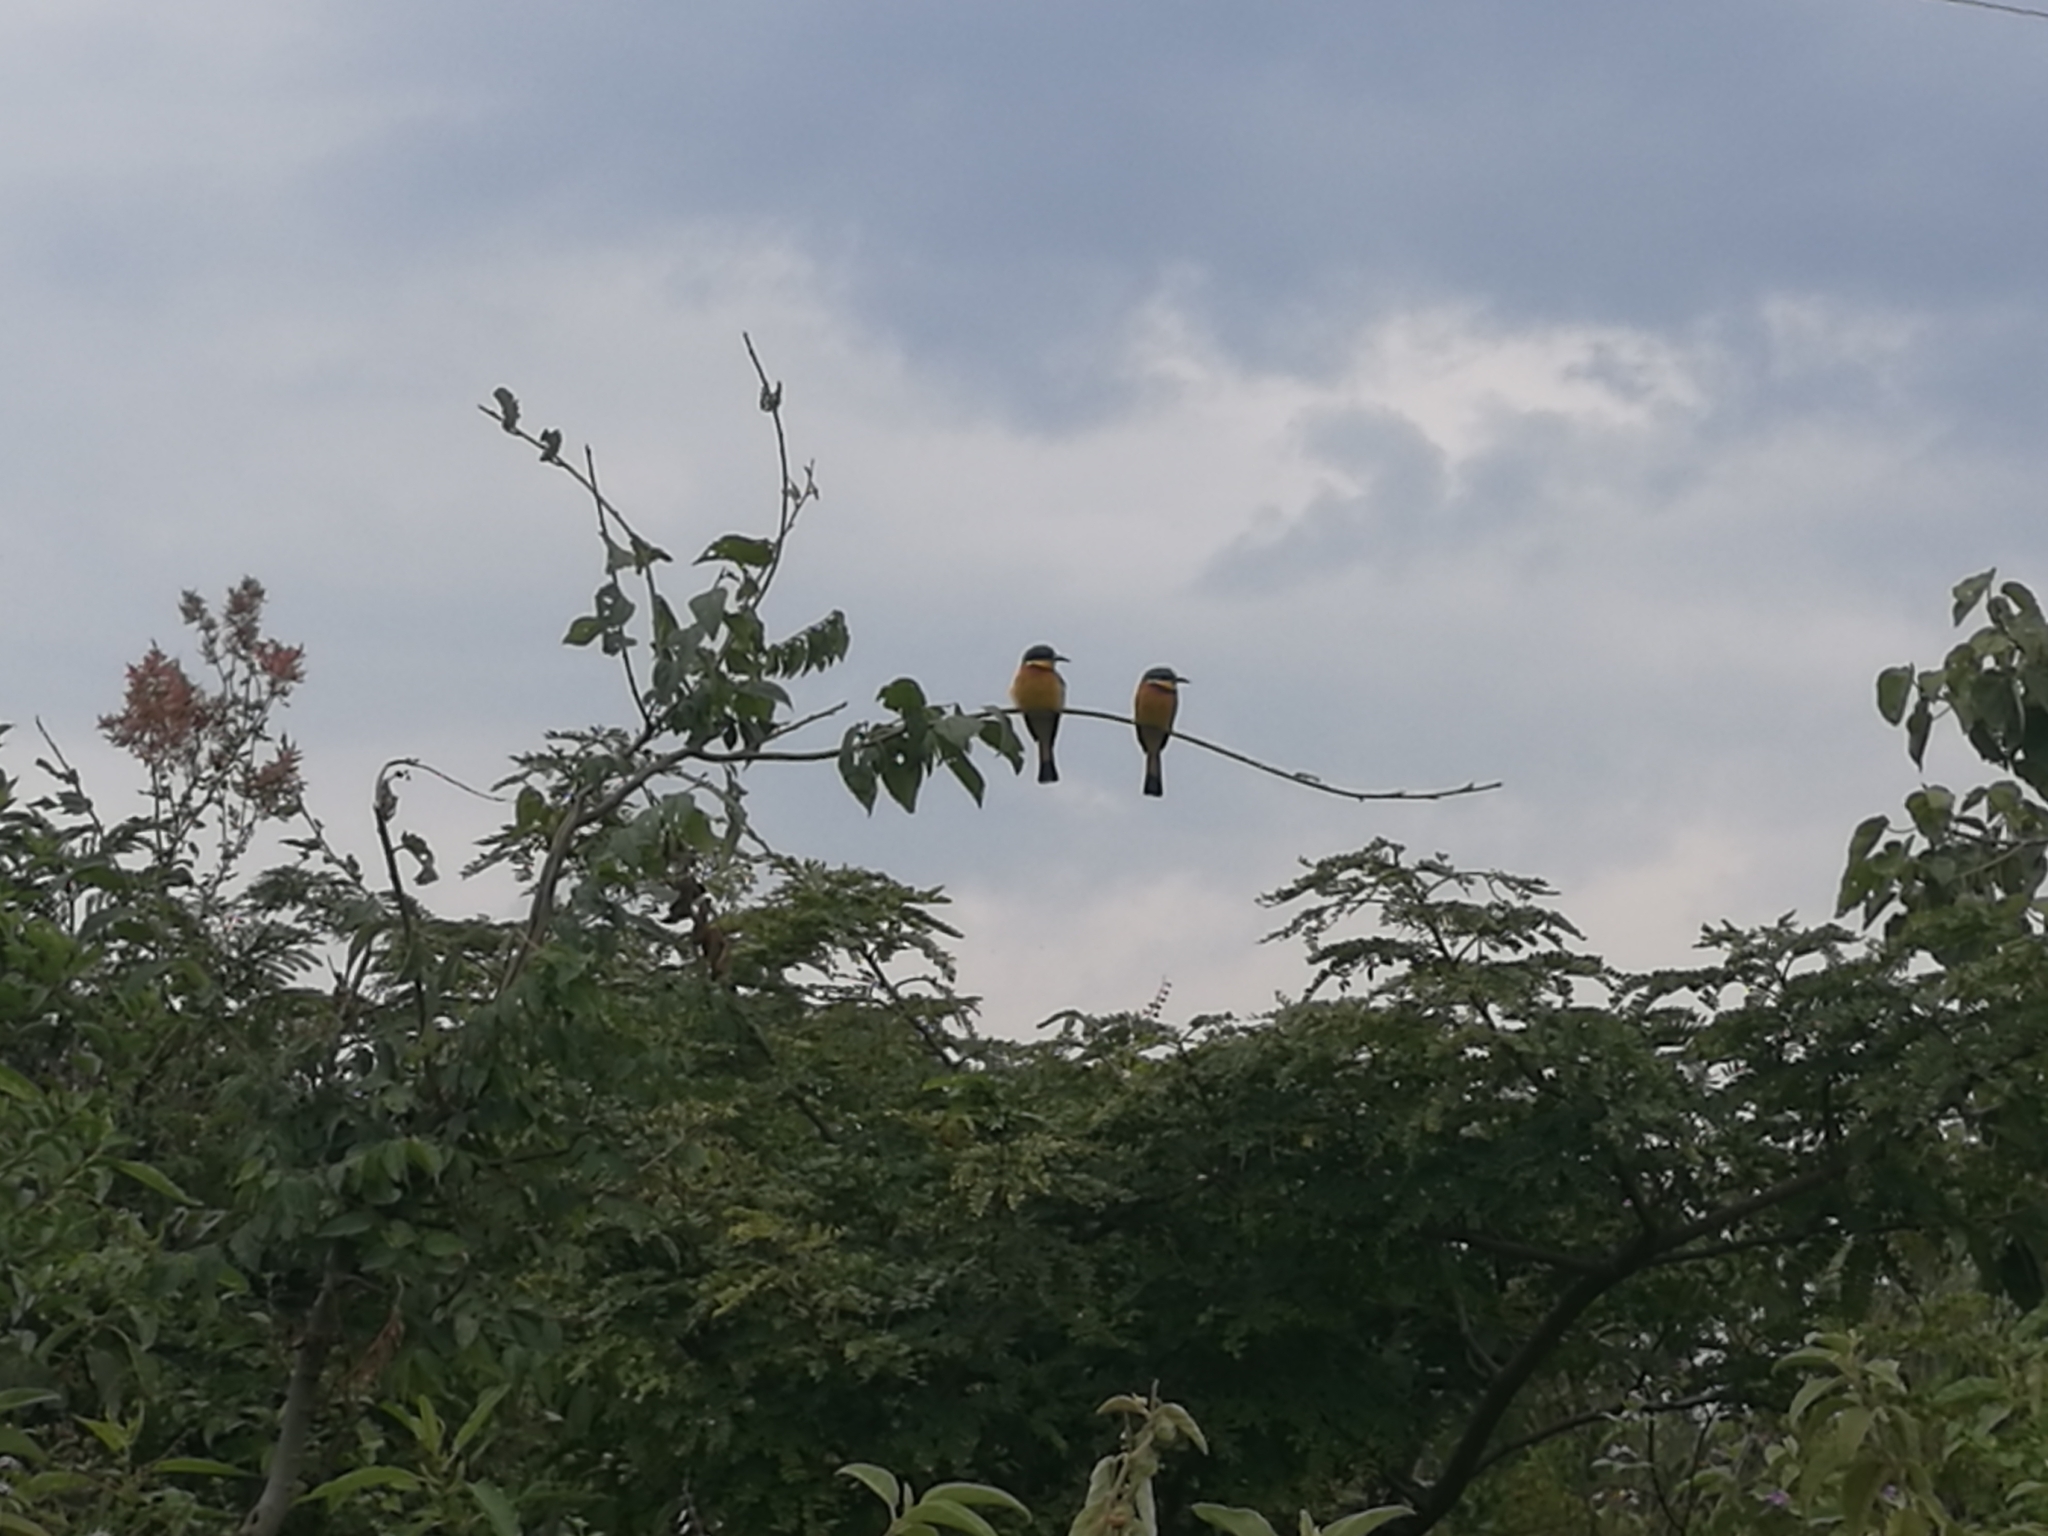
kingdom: Animalia
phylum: Chordata
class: Aves
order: Coraciiformes
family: Meropidae
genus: Merops
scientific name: Merops lafresnayii
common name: Ethiopian bee-eater
